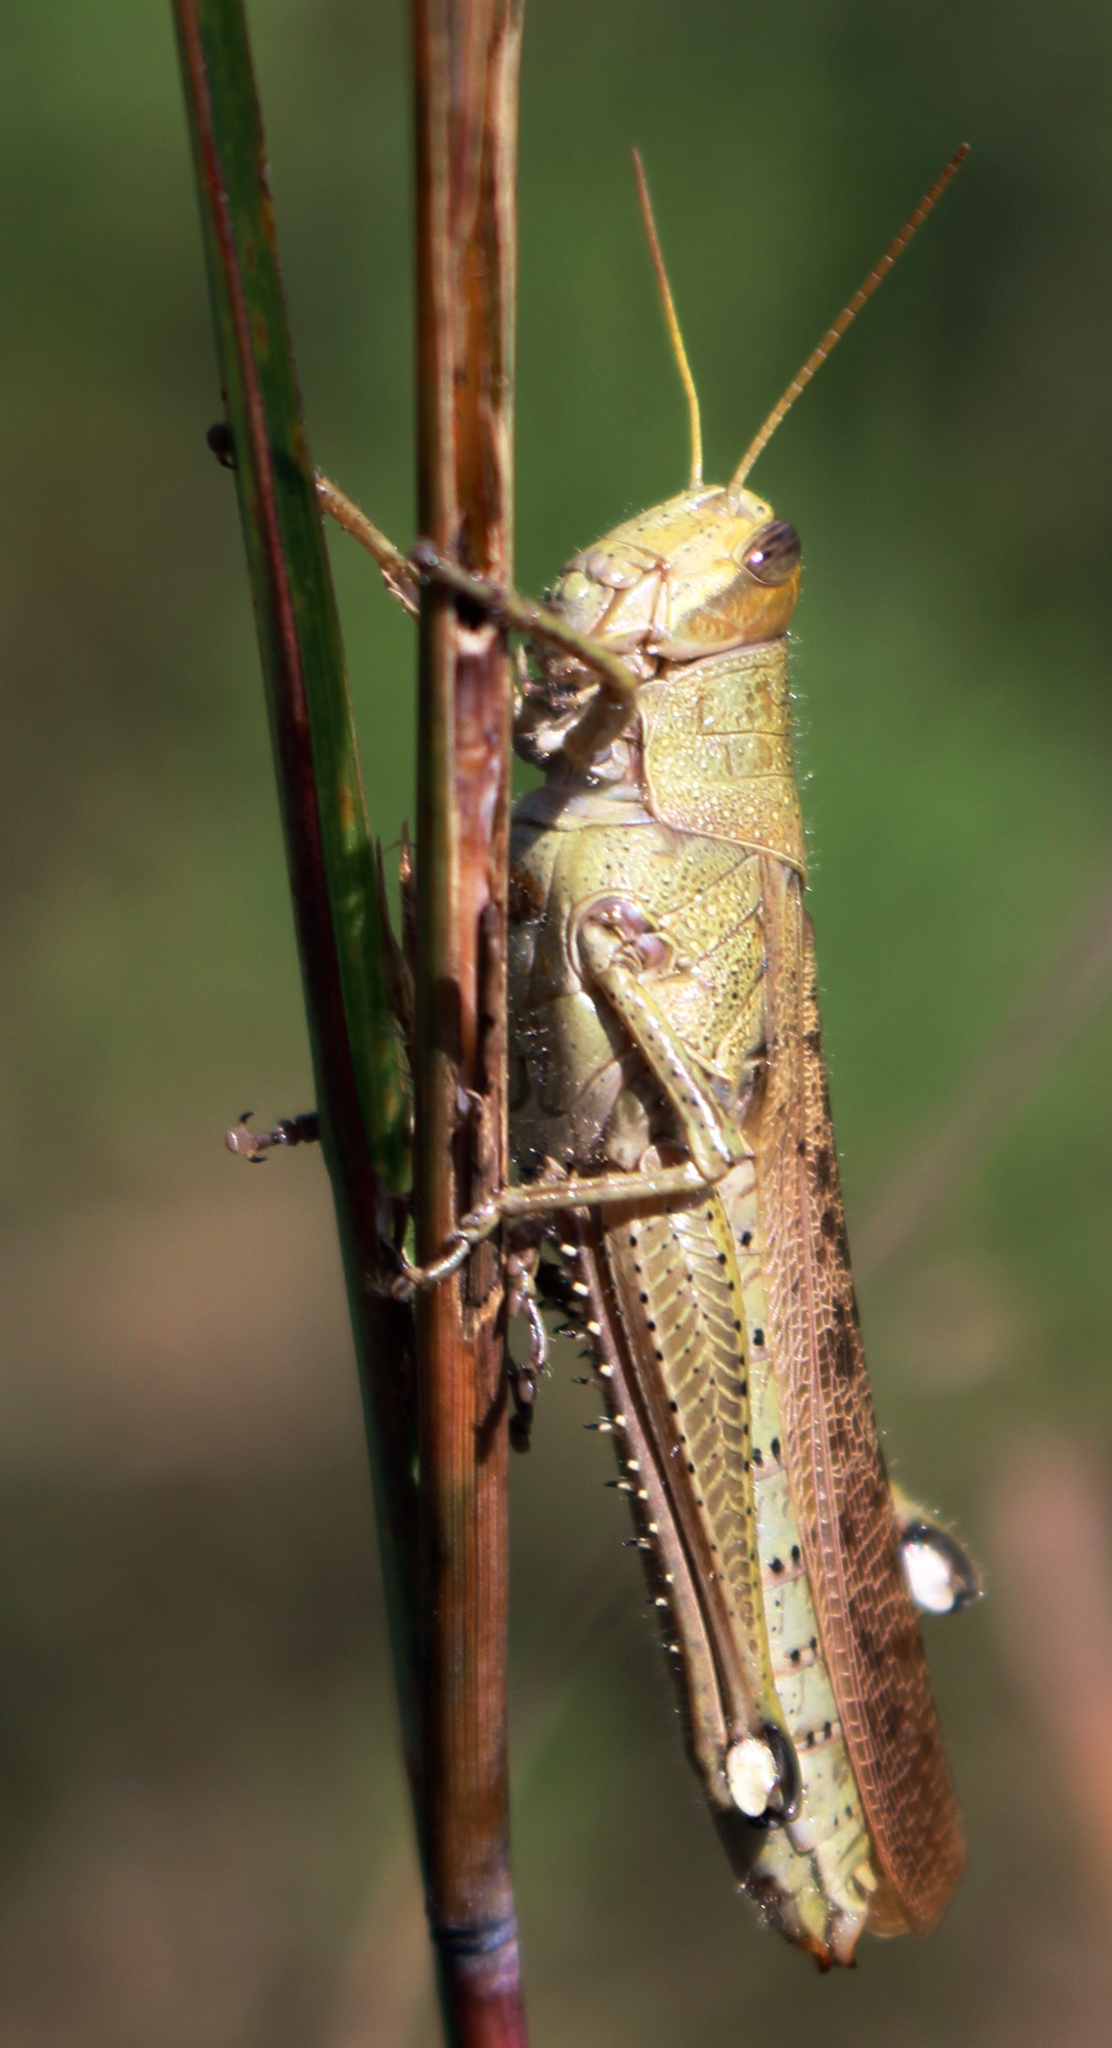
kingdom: Animalia
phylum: Arthropoda
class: Insecta
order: Orthoptera
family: Acrididae
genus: Schistocerca
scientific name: Schistocerca lineata
